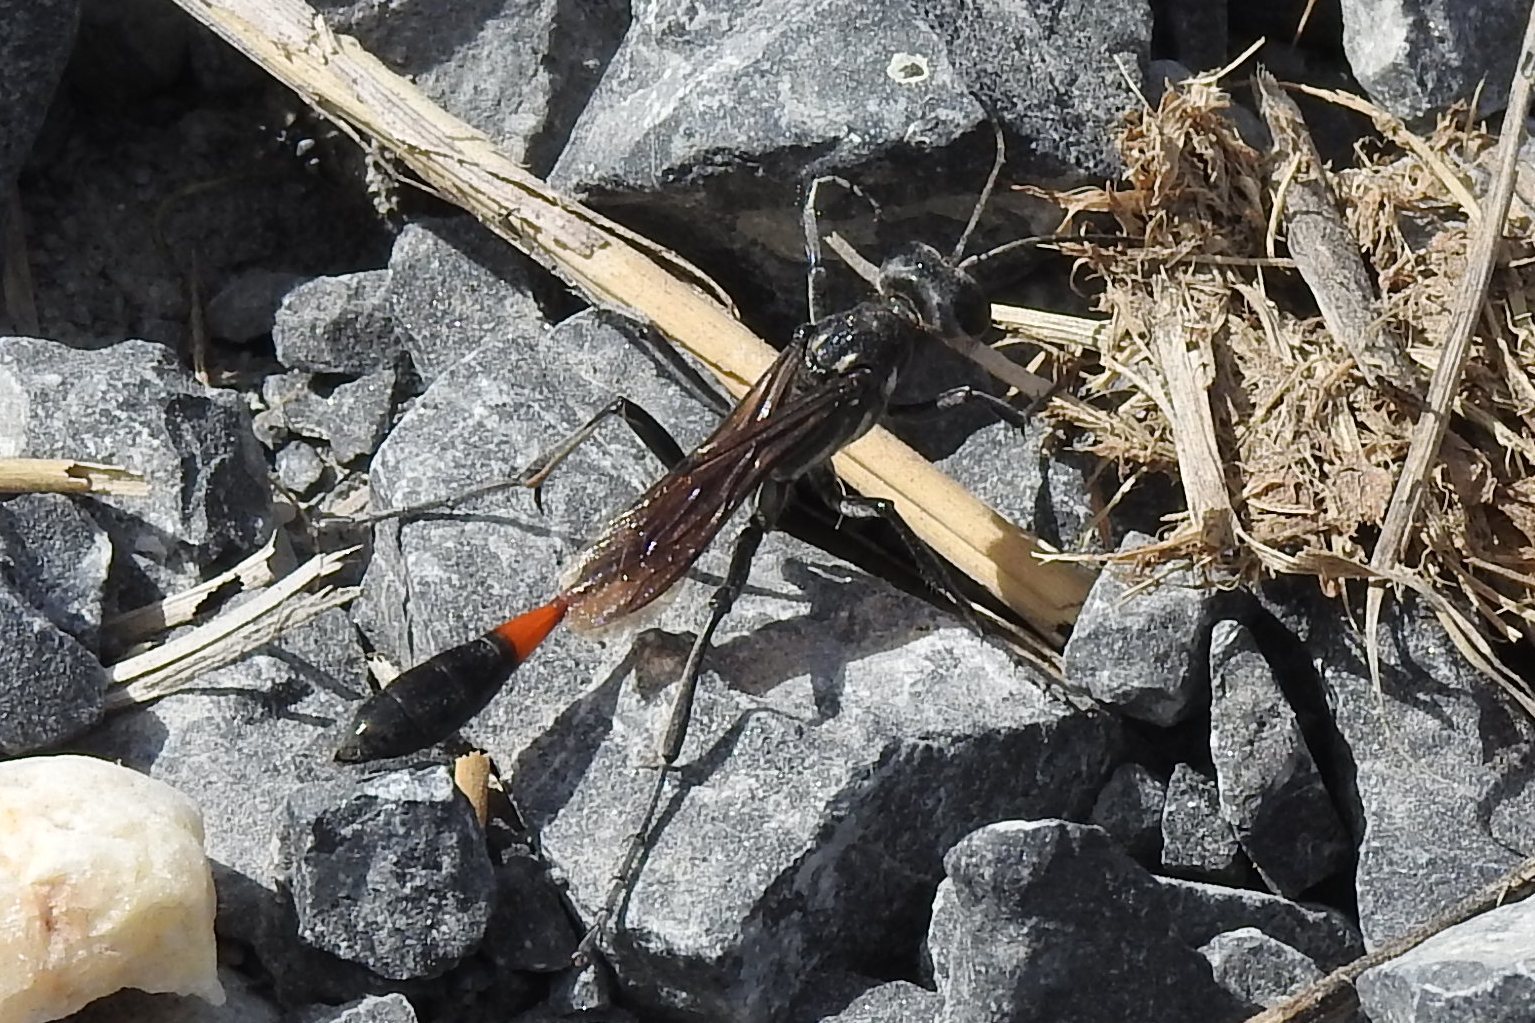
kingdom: Animalia
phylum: Arthropoda
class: Insecta
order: Hymenoptera
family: Sphecidae
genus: Ammophila
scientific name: Ammophila procera
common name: Common thread-waisted wasp
